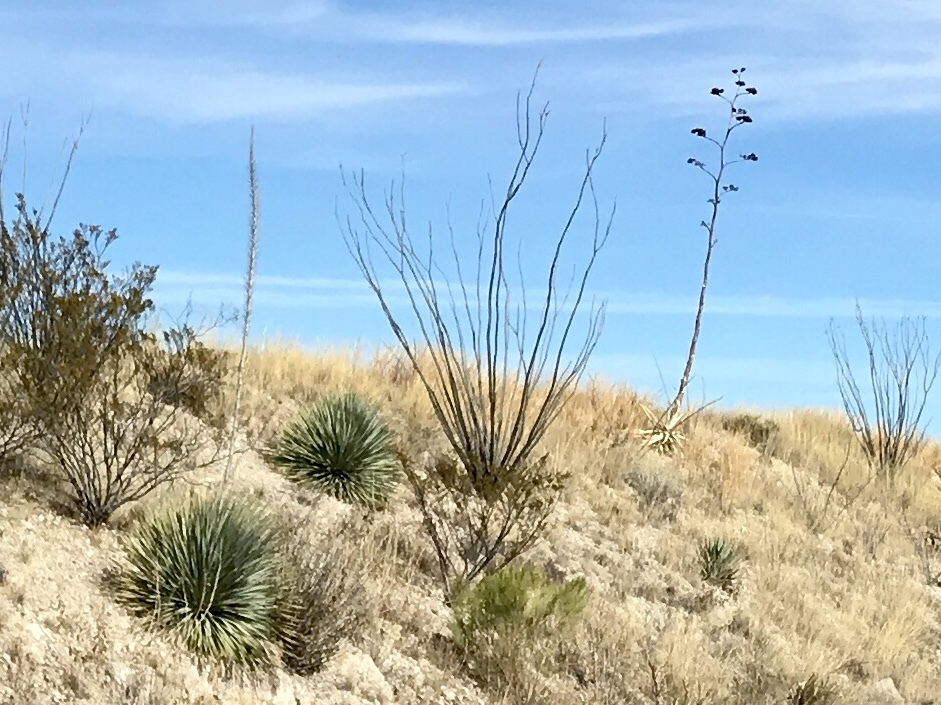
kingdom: Plantae
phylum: Tracheophyta
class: Magnoliopsida
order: Ericales
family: Fouquieriaceae
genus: Fouquieria
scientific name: Fouquieria splendens
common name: Vine-cactus
